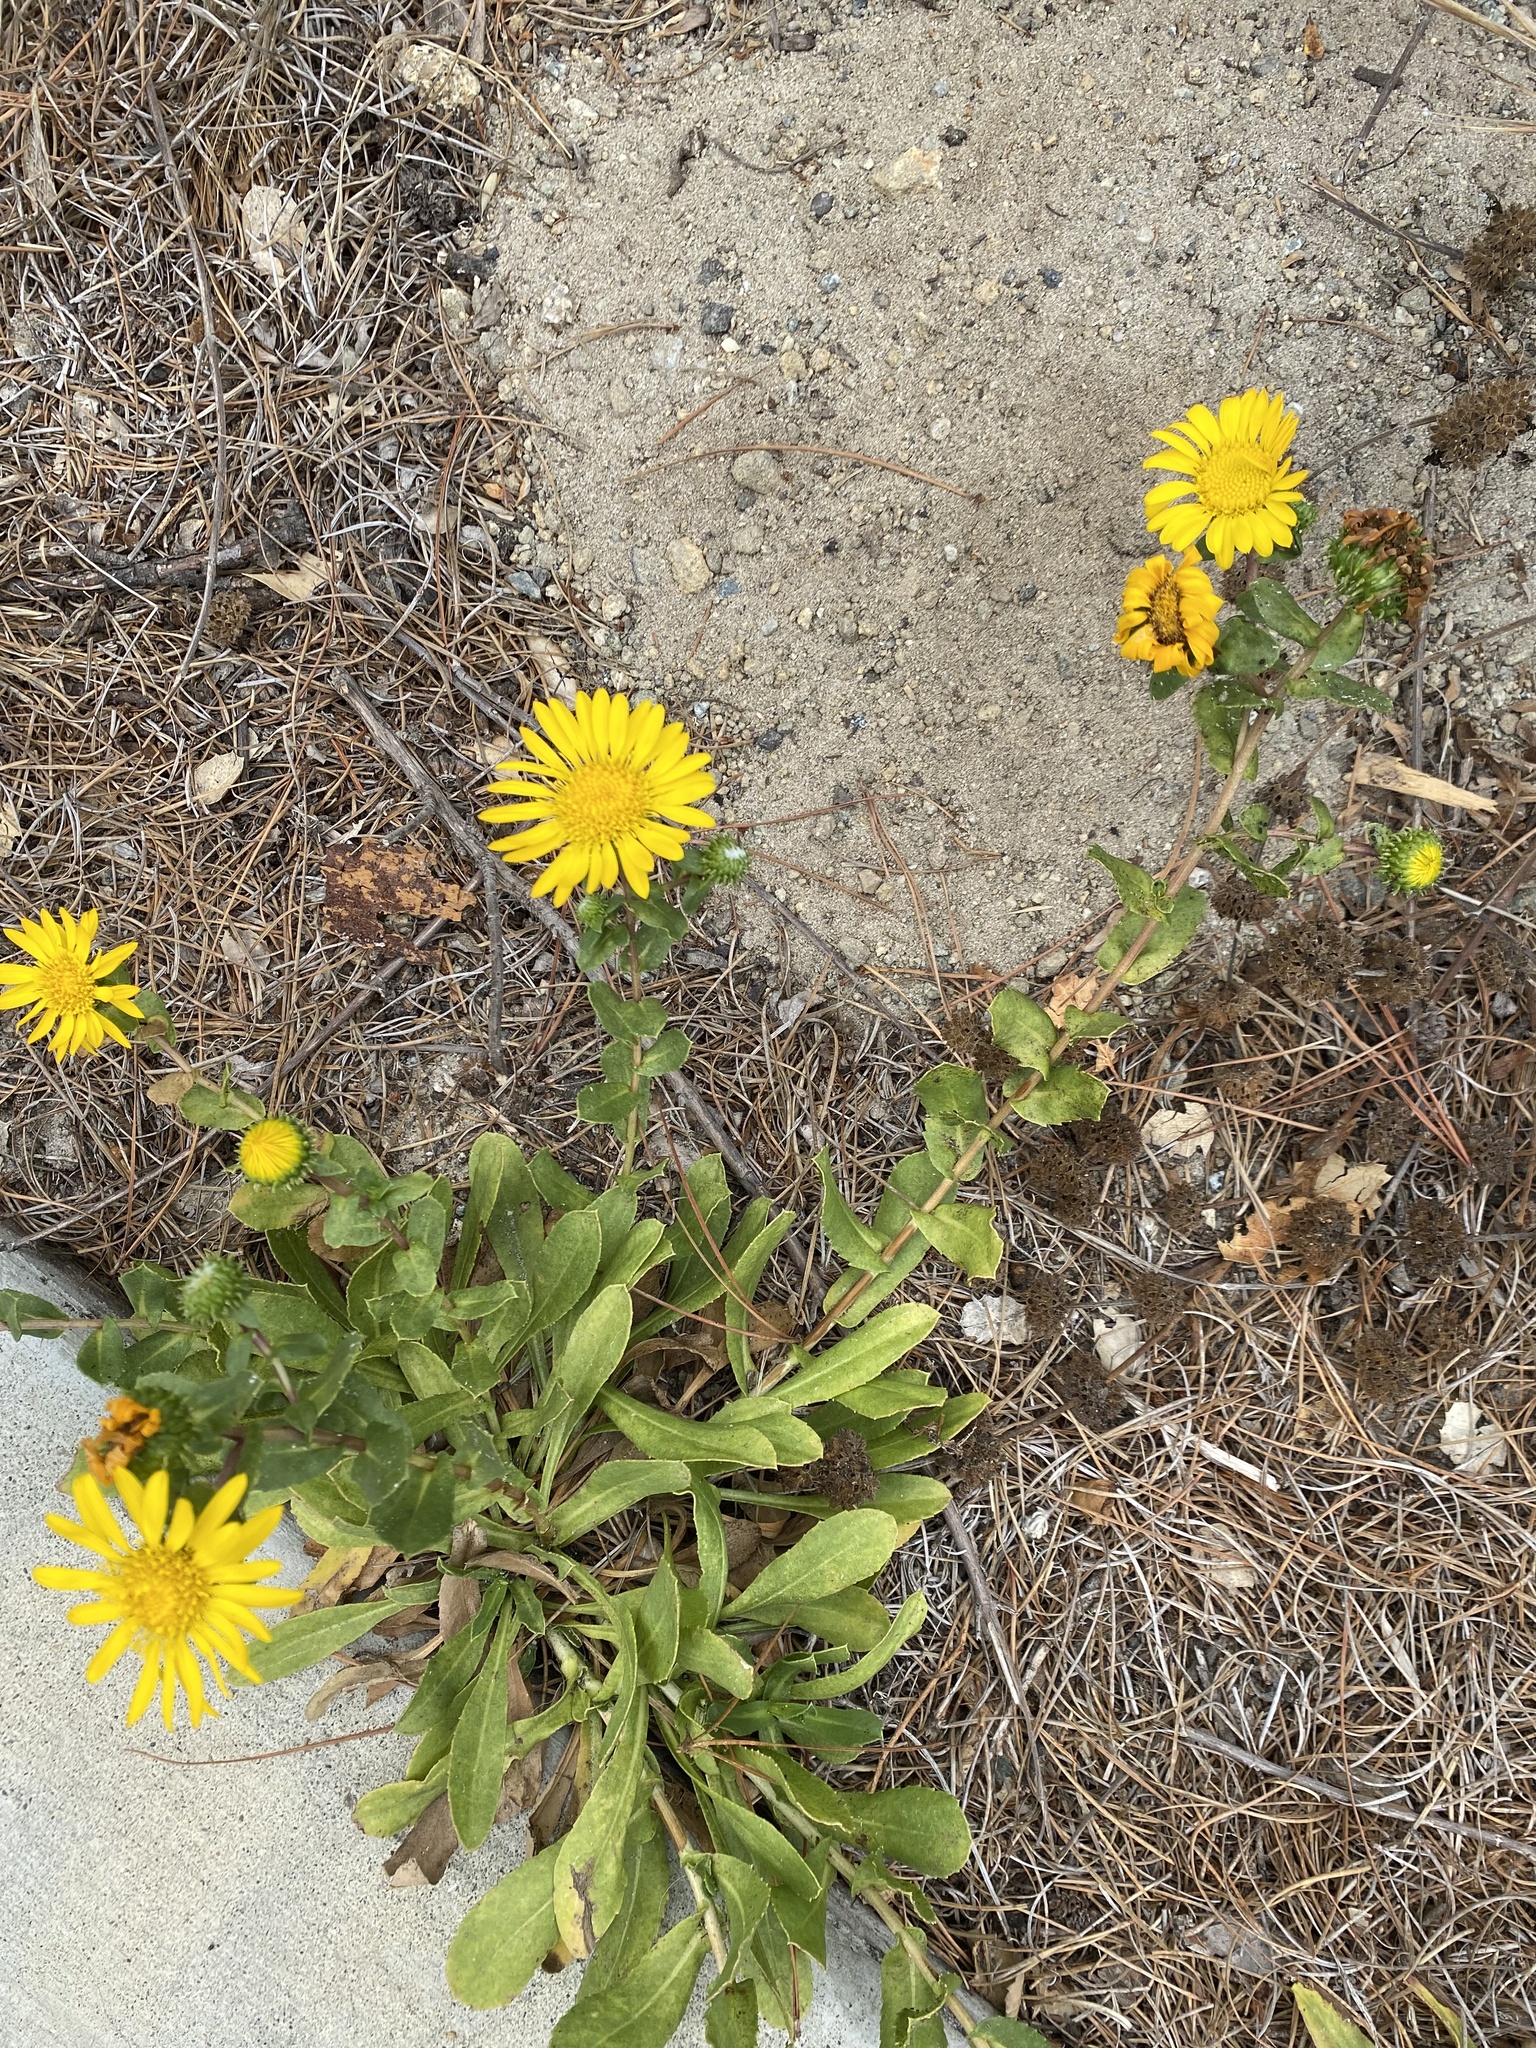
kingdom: Plantae
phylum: Tracheophyta
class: Magnoliopsida
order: Asterales
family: Asteraceae
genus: Grindelia
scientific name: Grindelia hirsutula
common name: Hairy gumweed
